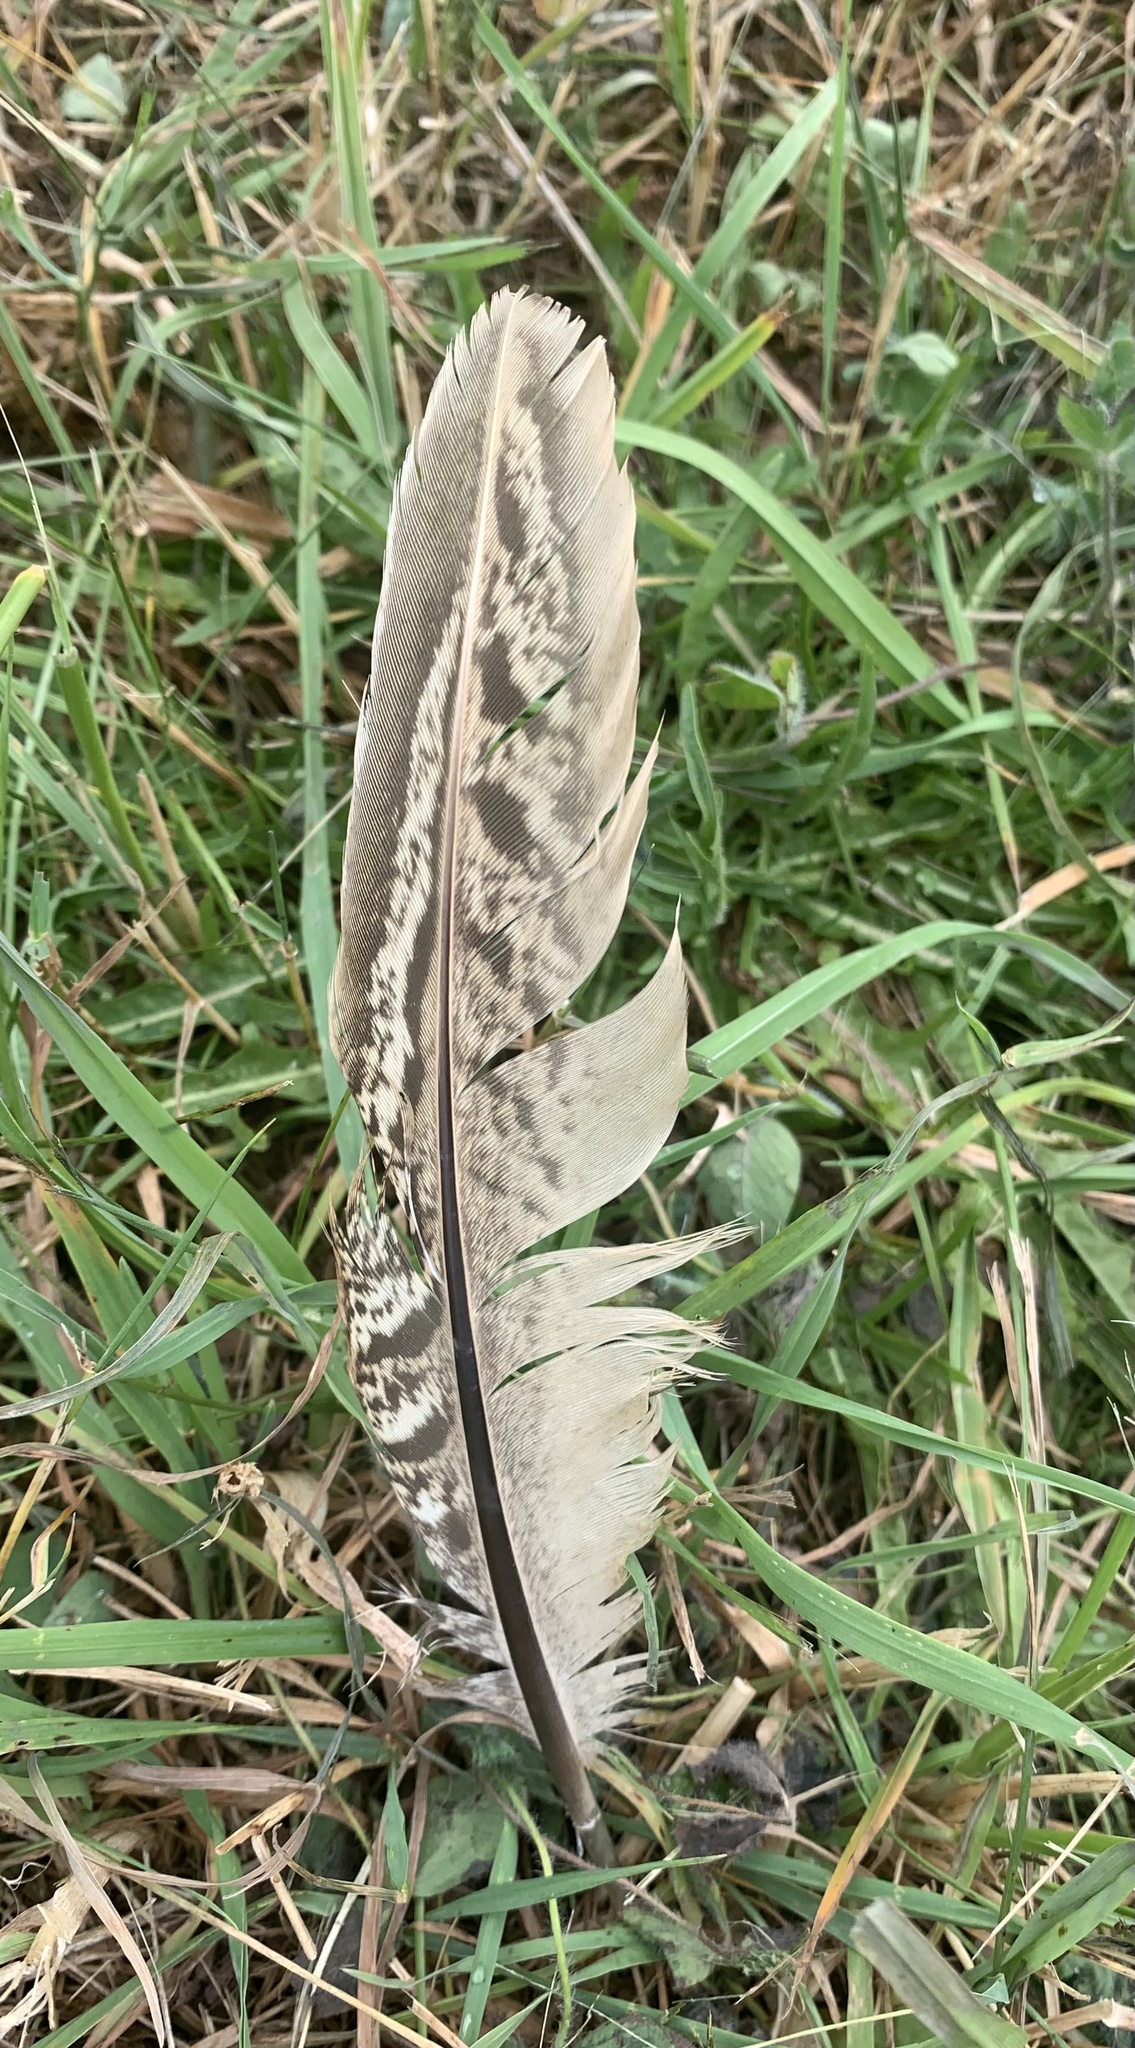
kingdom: Animalia
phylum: Chordata
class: Aves
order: Galliformes
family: Phasianidae
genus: Phasianus
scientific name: Phasianus colchicus
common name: Common pheasant
